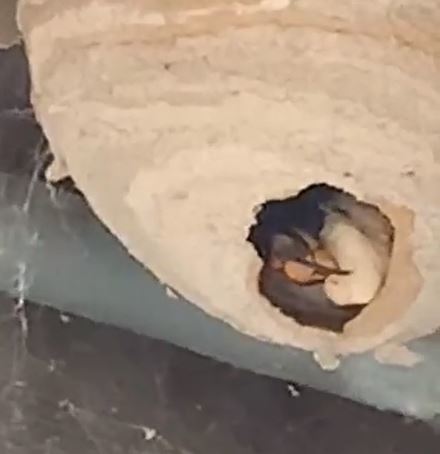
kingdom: Animalia
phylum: Arthropoda
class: Insecta
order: Hymenoptera
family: Vespidae
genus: Vespa
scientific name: Vespa velutina
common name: Asian hornet
